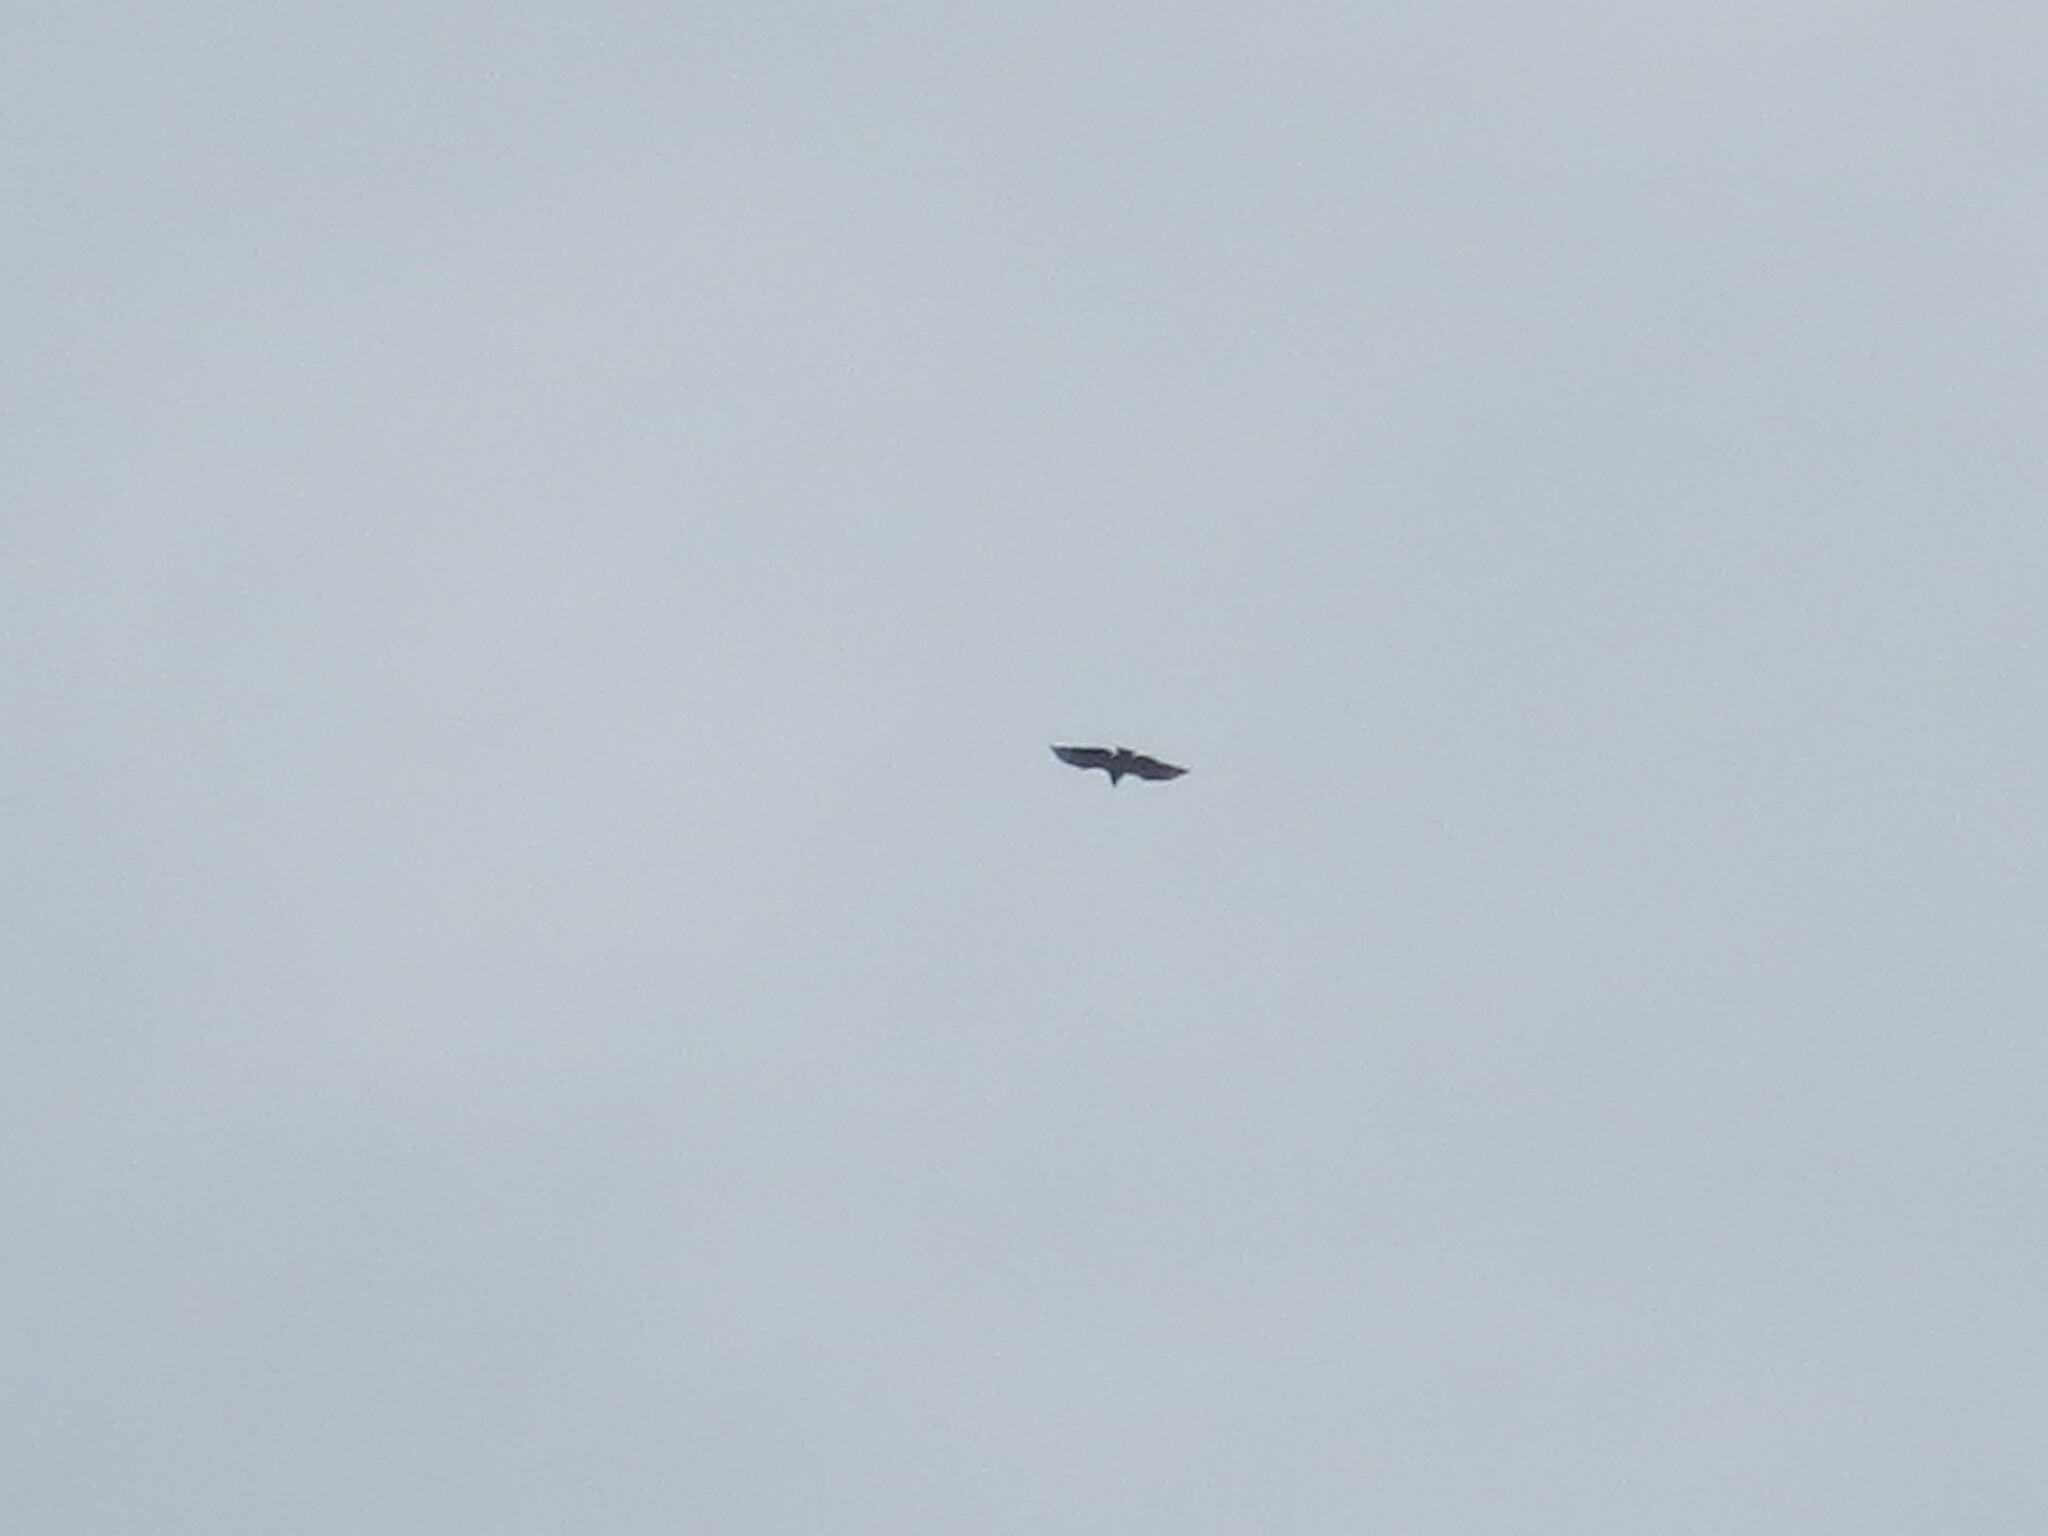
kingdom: Animalia
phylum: Chordata
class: Aves
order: Accipitriformes
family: Cathartidae
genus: Coragyps
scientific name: Coragyps atratus
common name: Black vulture
